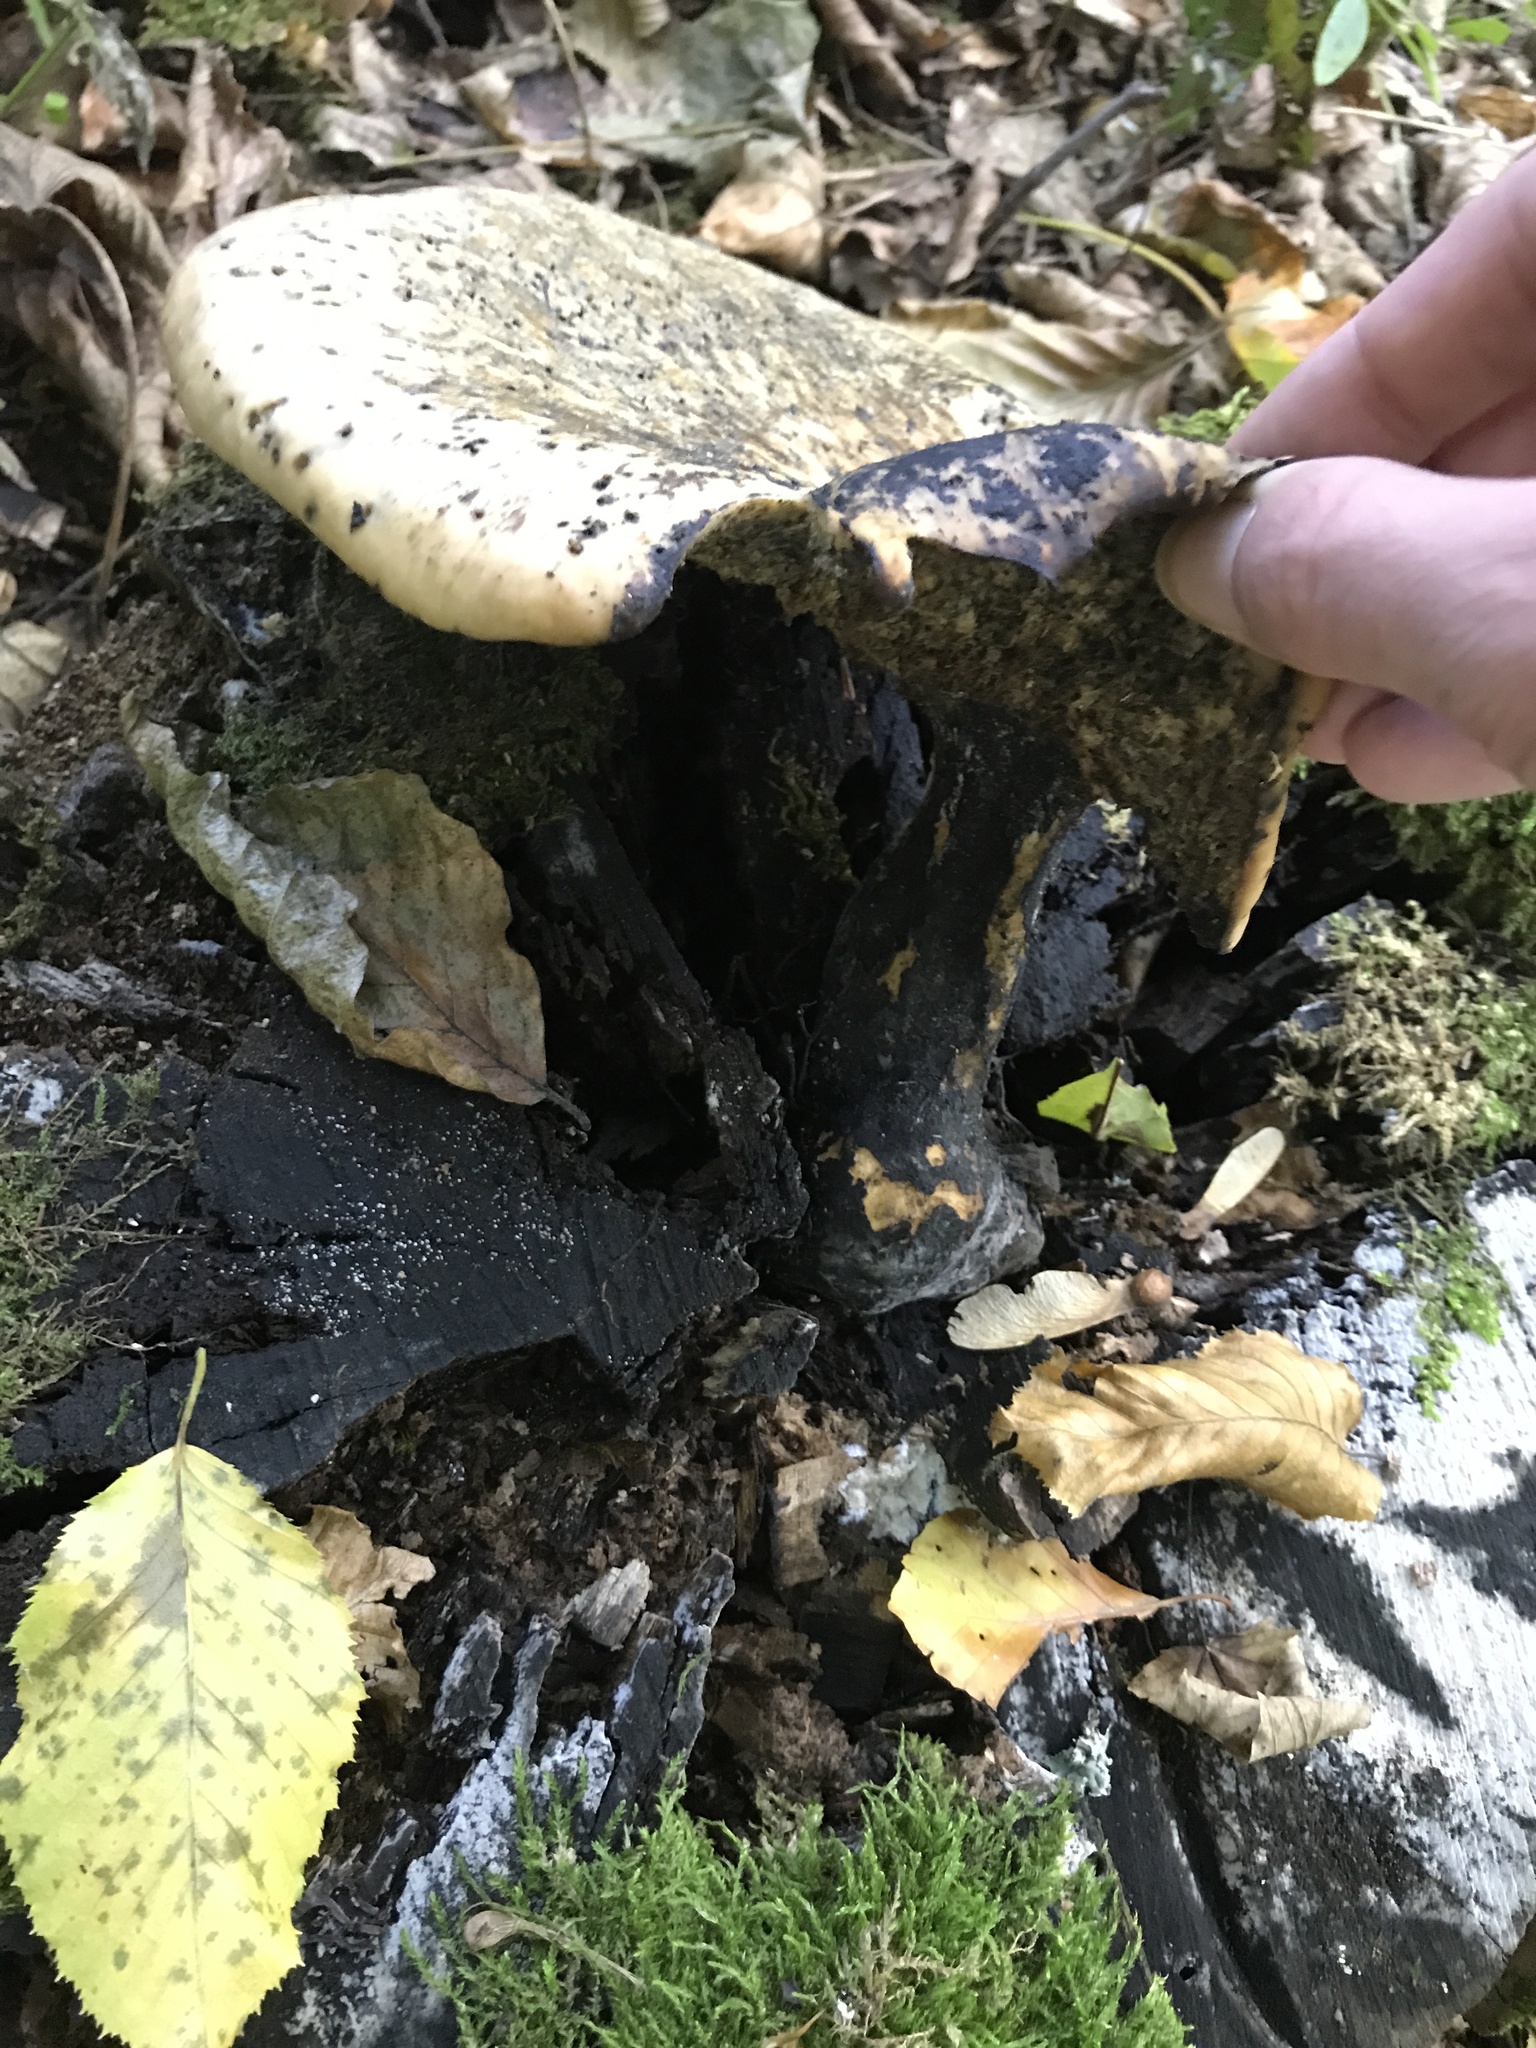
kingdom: Fungi
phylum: Basidiomycota
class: Agaricomycetes
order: Polyporales
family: Polyporaceae
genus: Cerioporus
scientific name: Cerioporus squamosus
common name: Dryad's saddle
